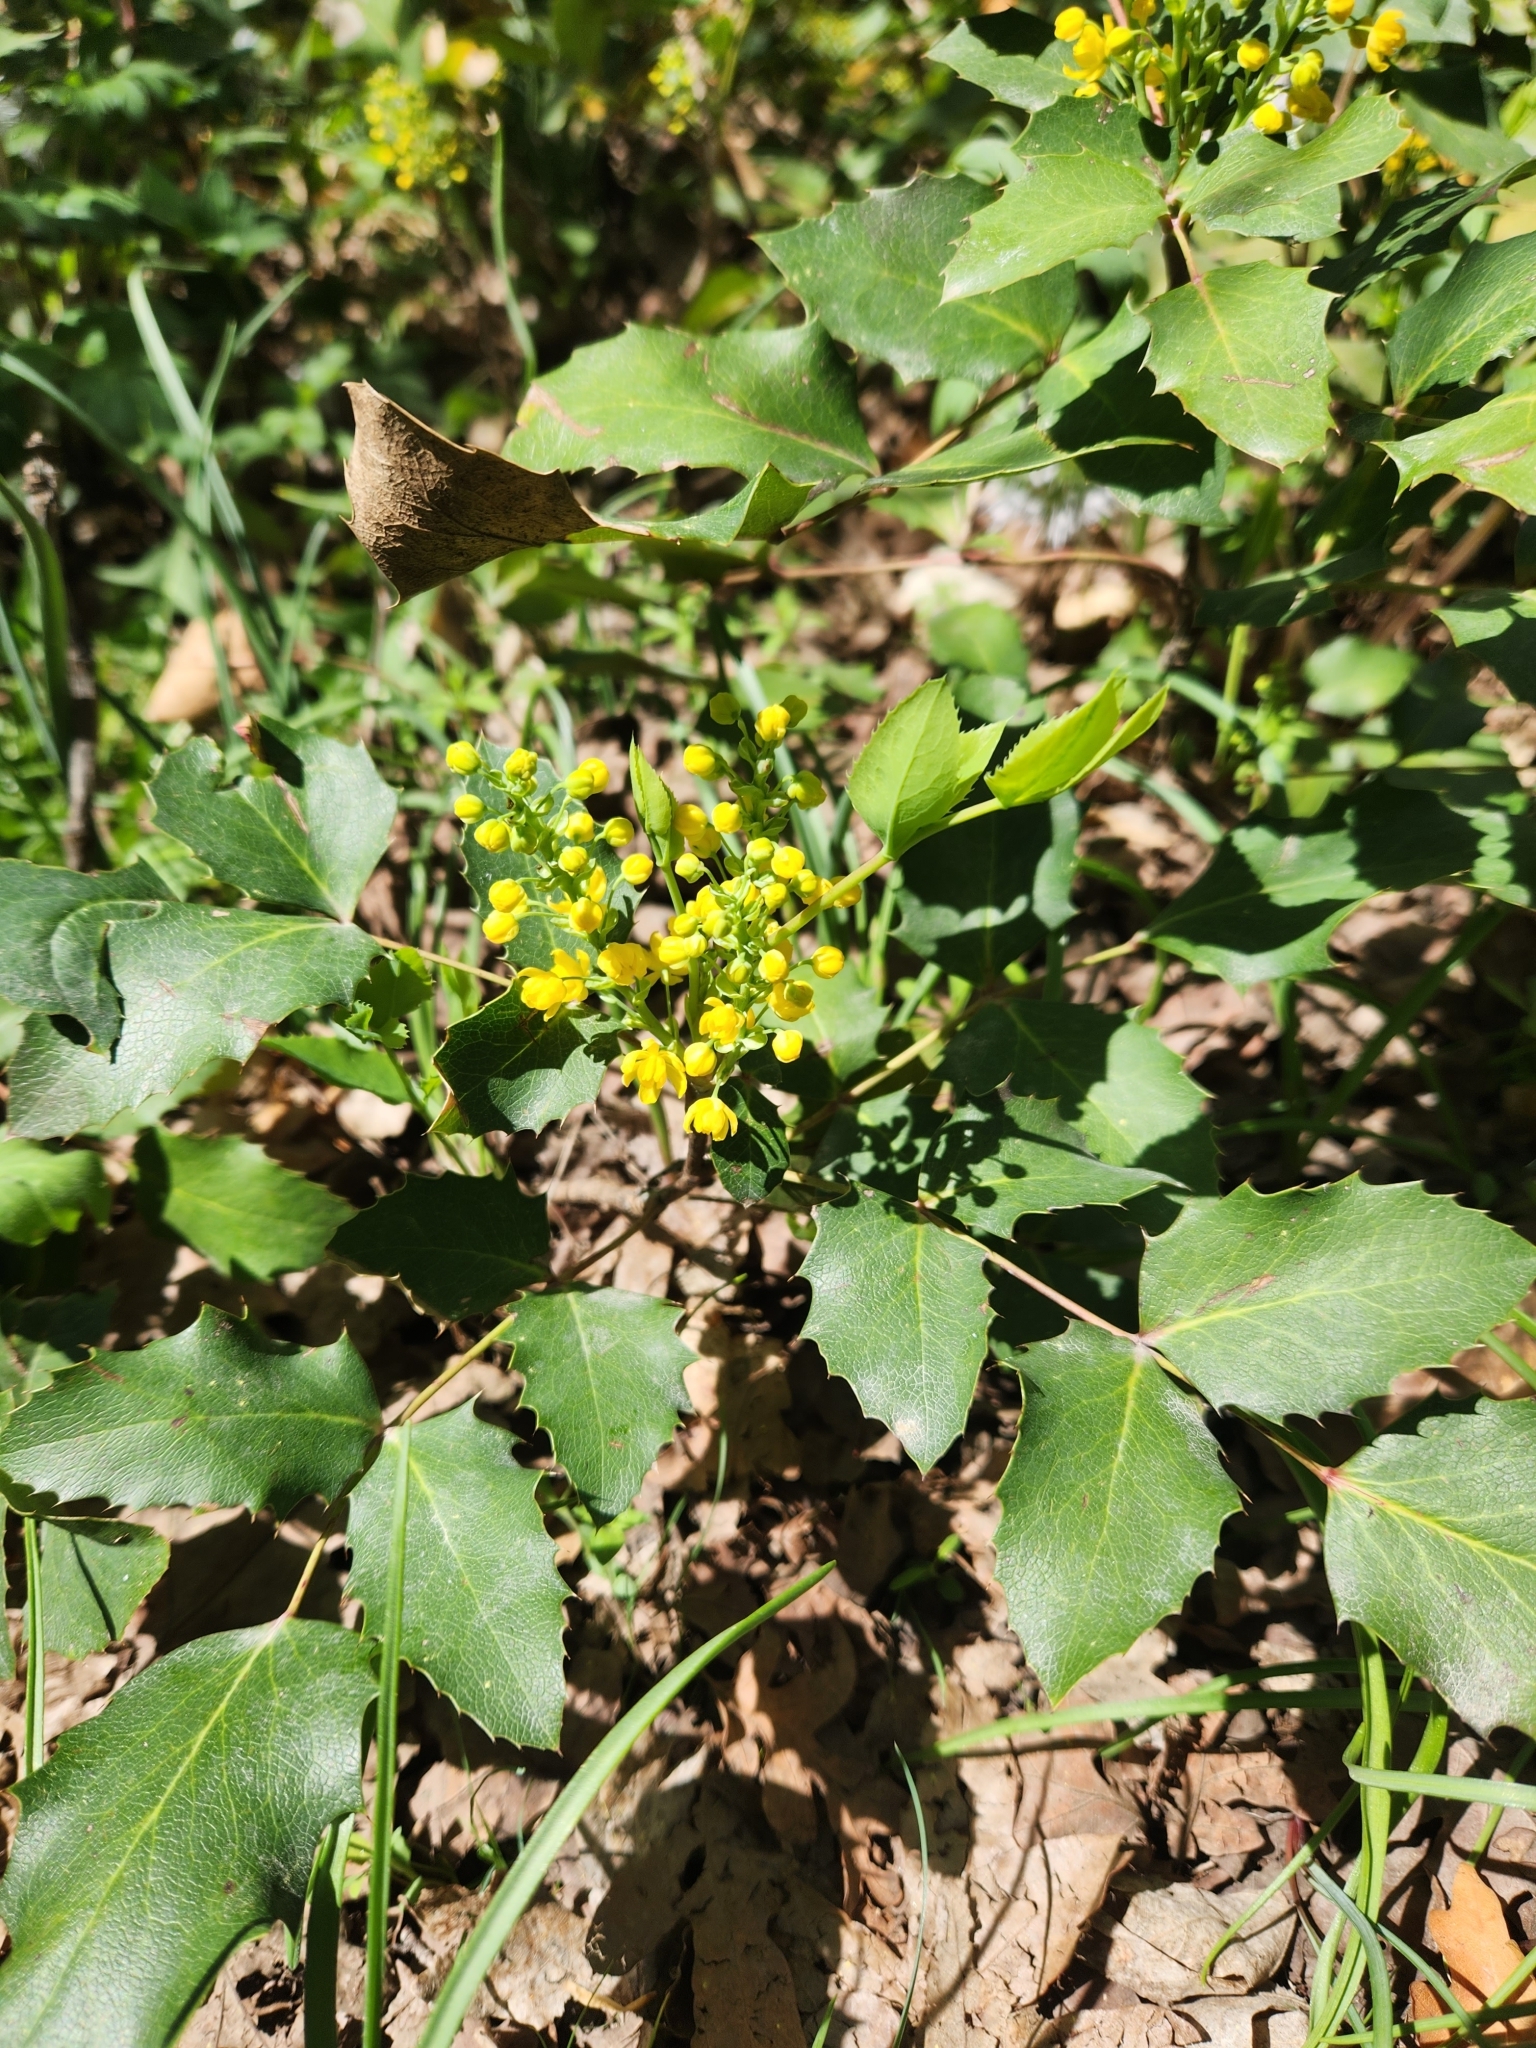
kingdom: Plantae
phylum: Tracheophyta
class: Magnoliopsida
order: Ranunculales
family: Berberidaceae
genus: Mahonia
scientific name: Mahonia repens
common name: Creeping oregon-grape
